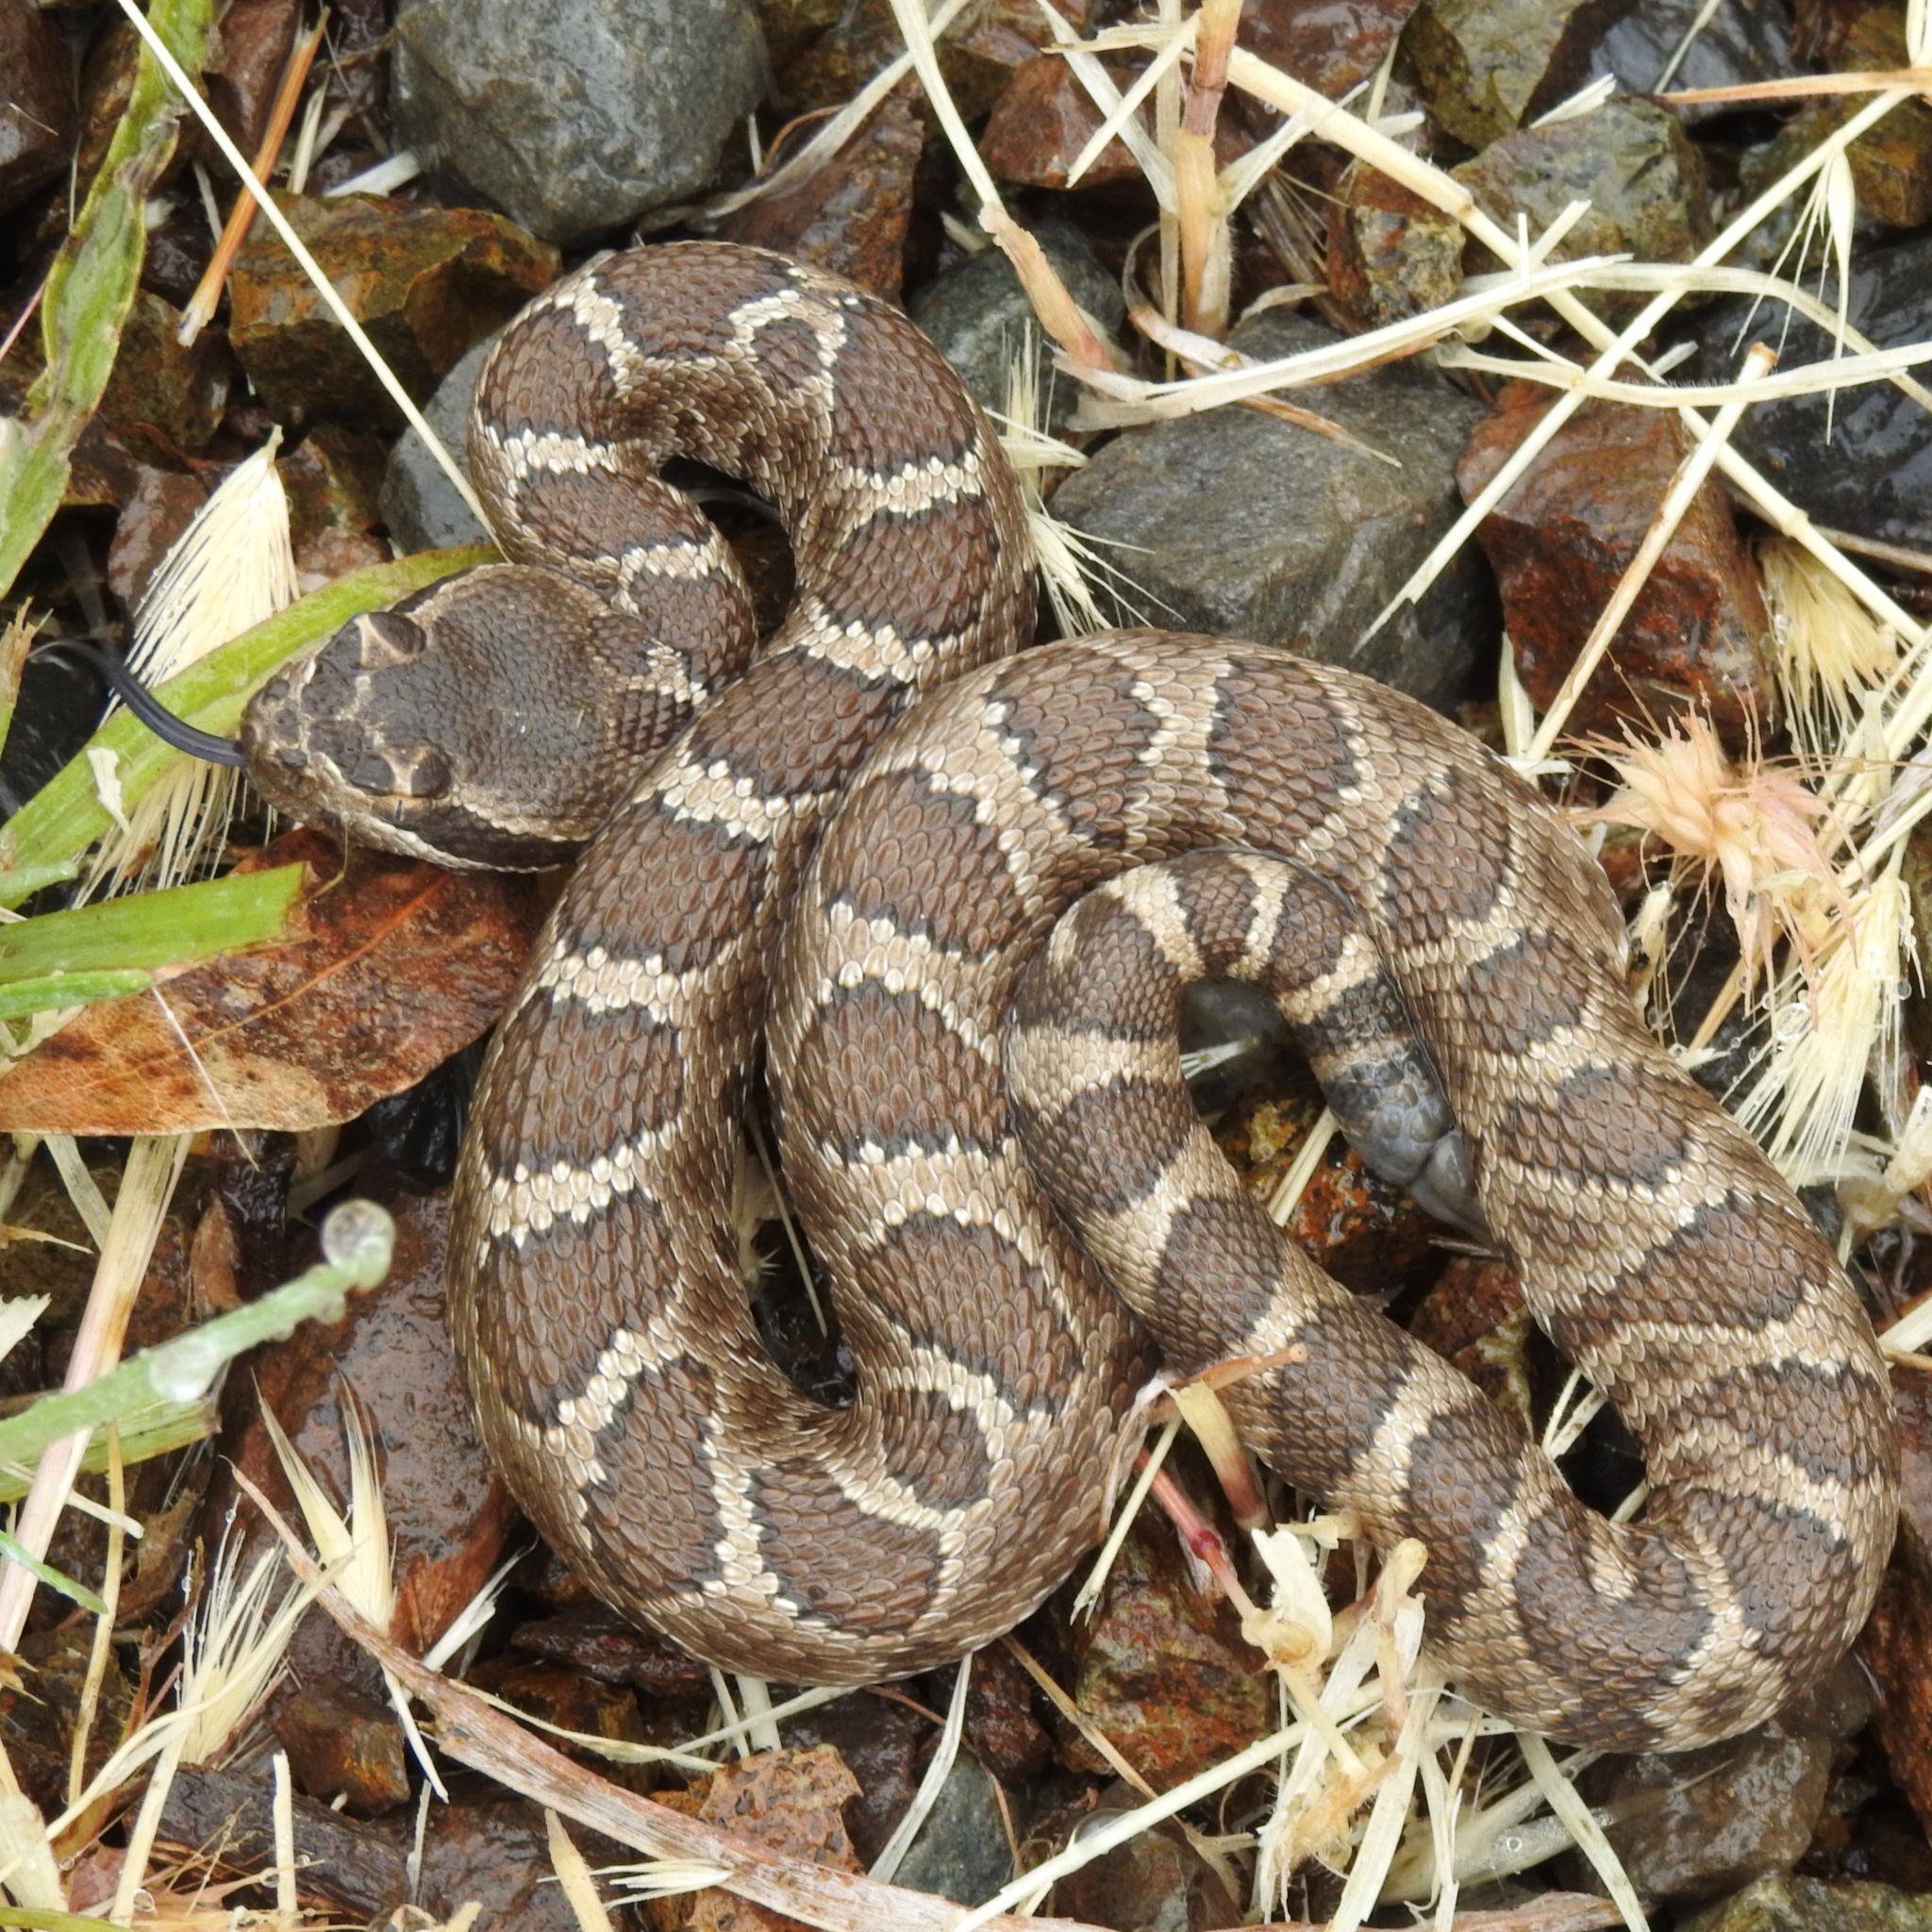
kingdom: Animalia
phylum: Chordata
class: Squamata
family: Viperidae
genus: Crotalus
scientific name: Crotalus oreganus
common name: Abyssus
